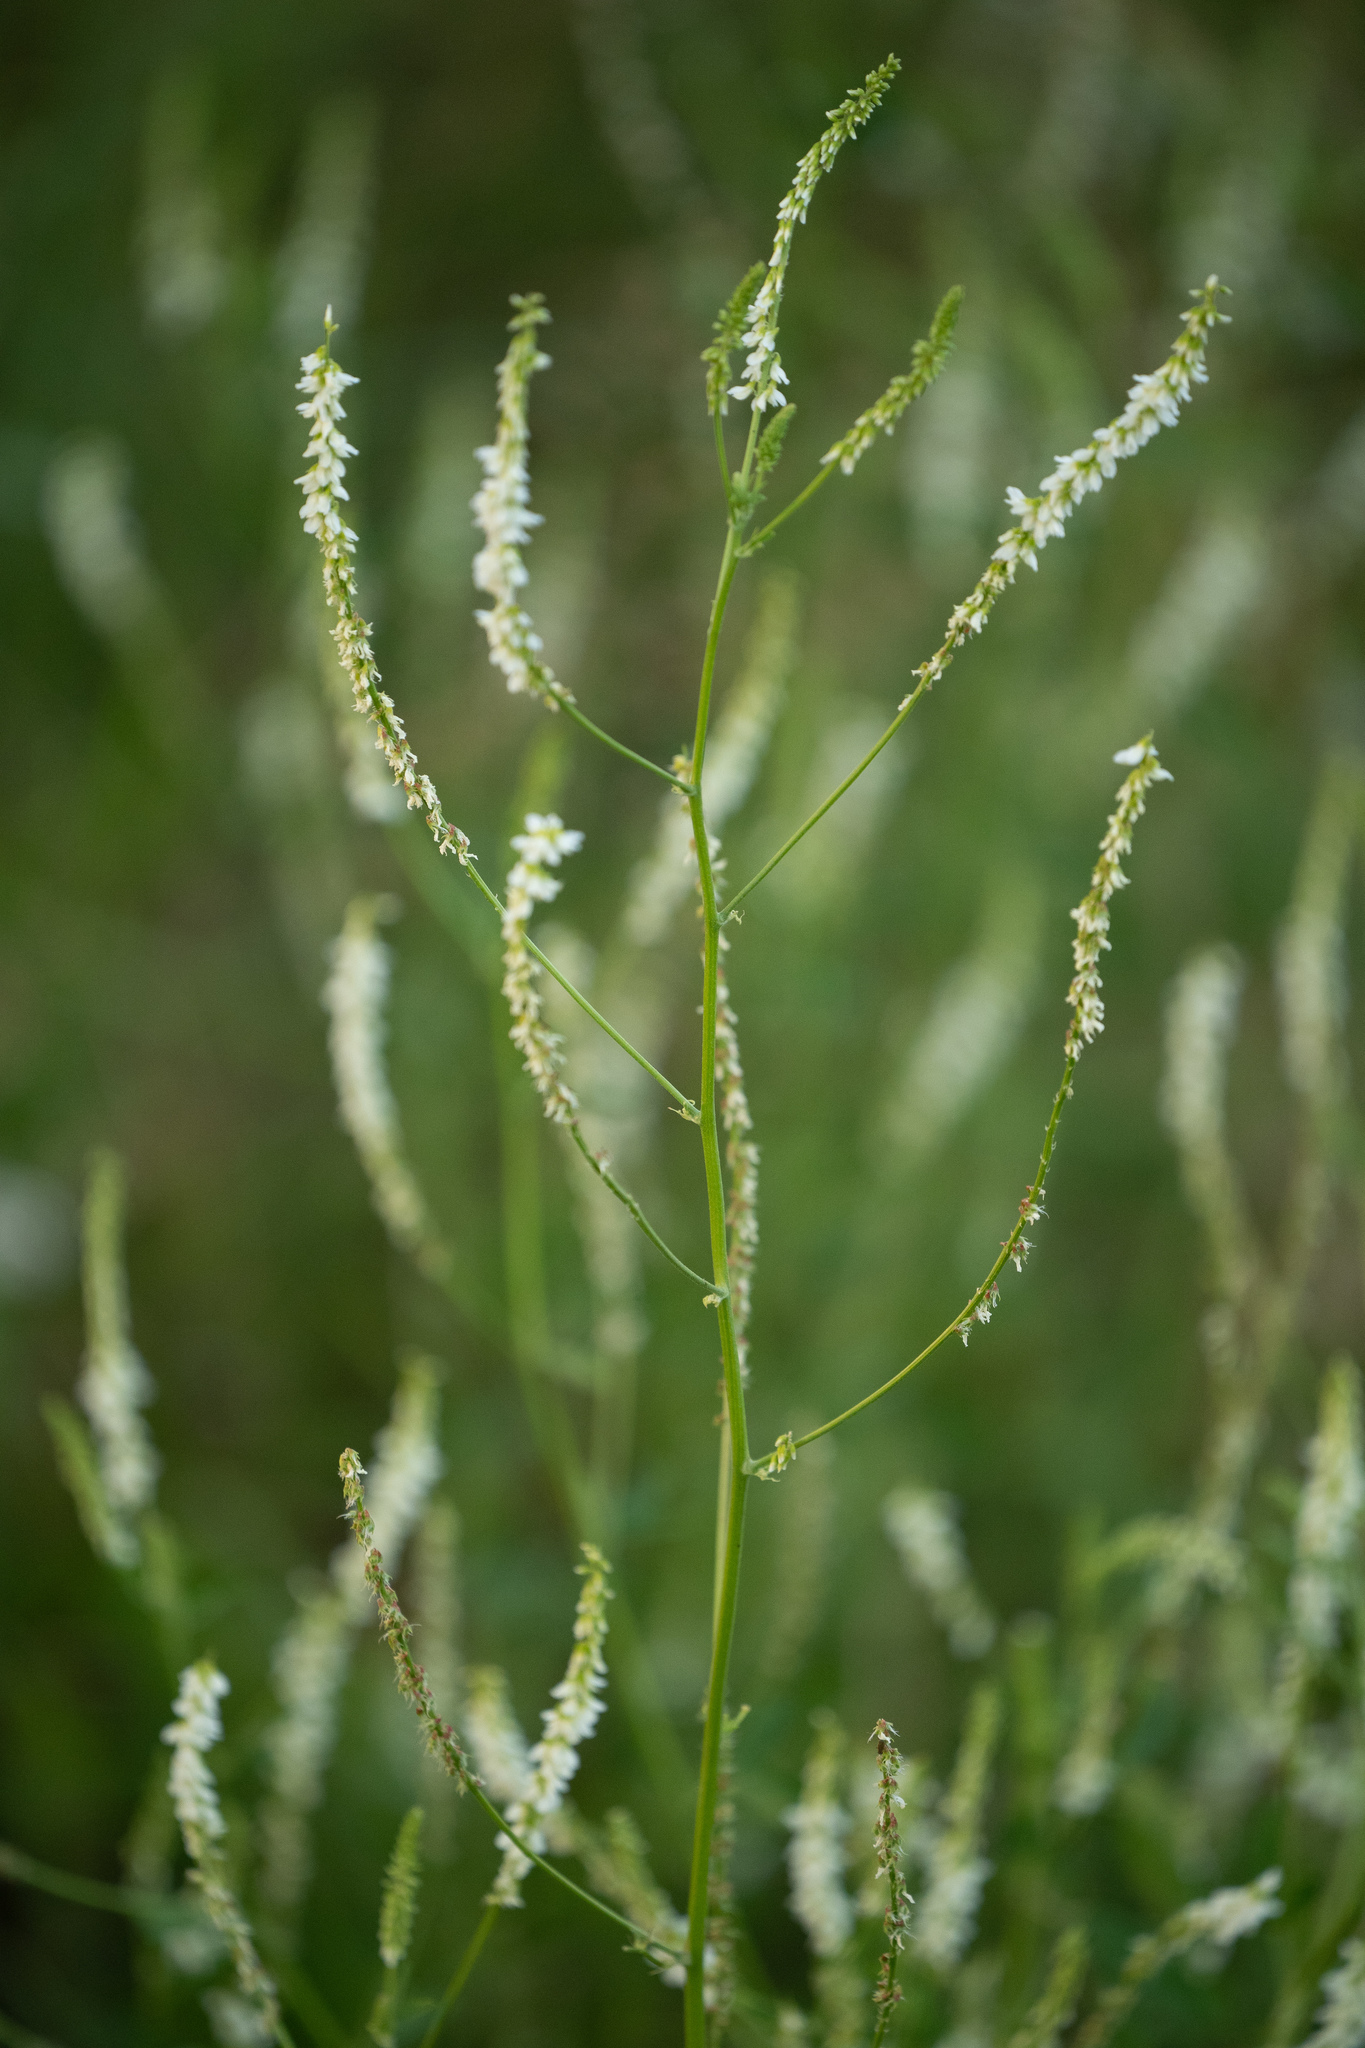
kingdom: Plantae
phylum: Tracheophyta
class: Magnoliopsida
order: Fabales
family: Fabaceae
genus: Melilotus
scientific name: Melilotus albus
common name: White melilot
